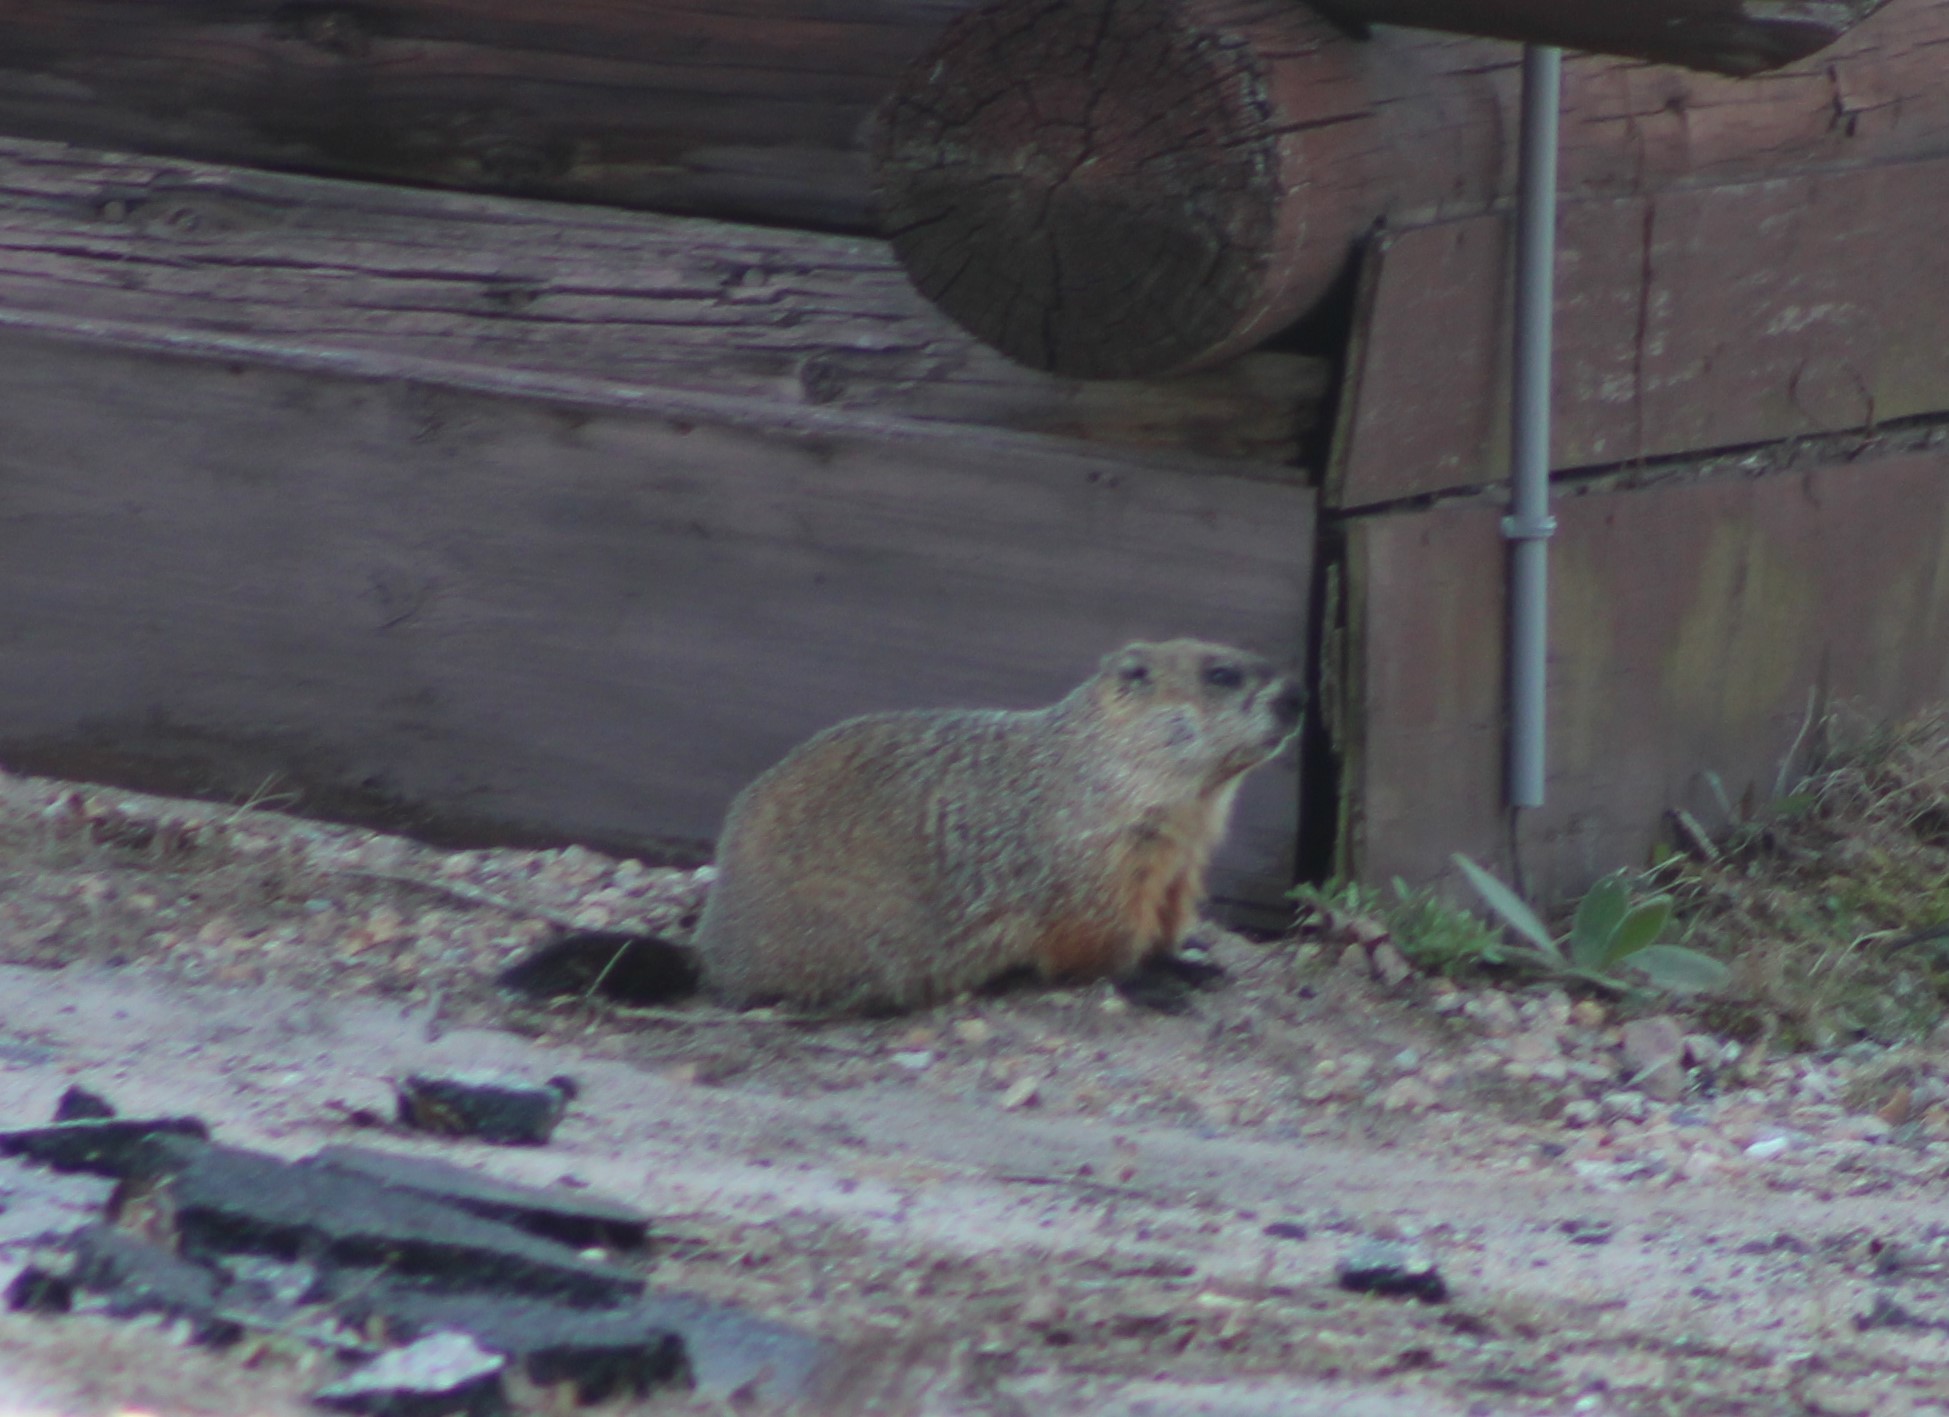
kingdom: Animalia
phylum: Chordata
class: Mammalia
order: Rodentia
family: Sciuridae
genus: Marmota
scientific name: Marmota monax
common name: Groundhog
